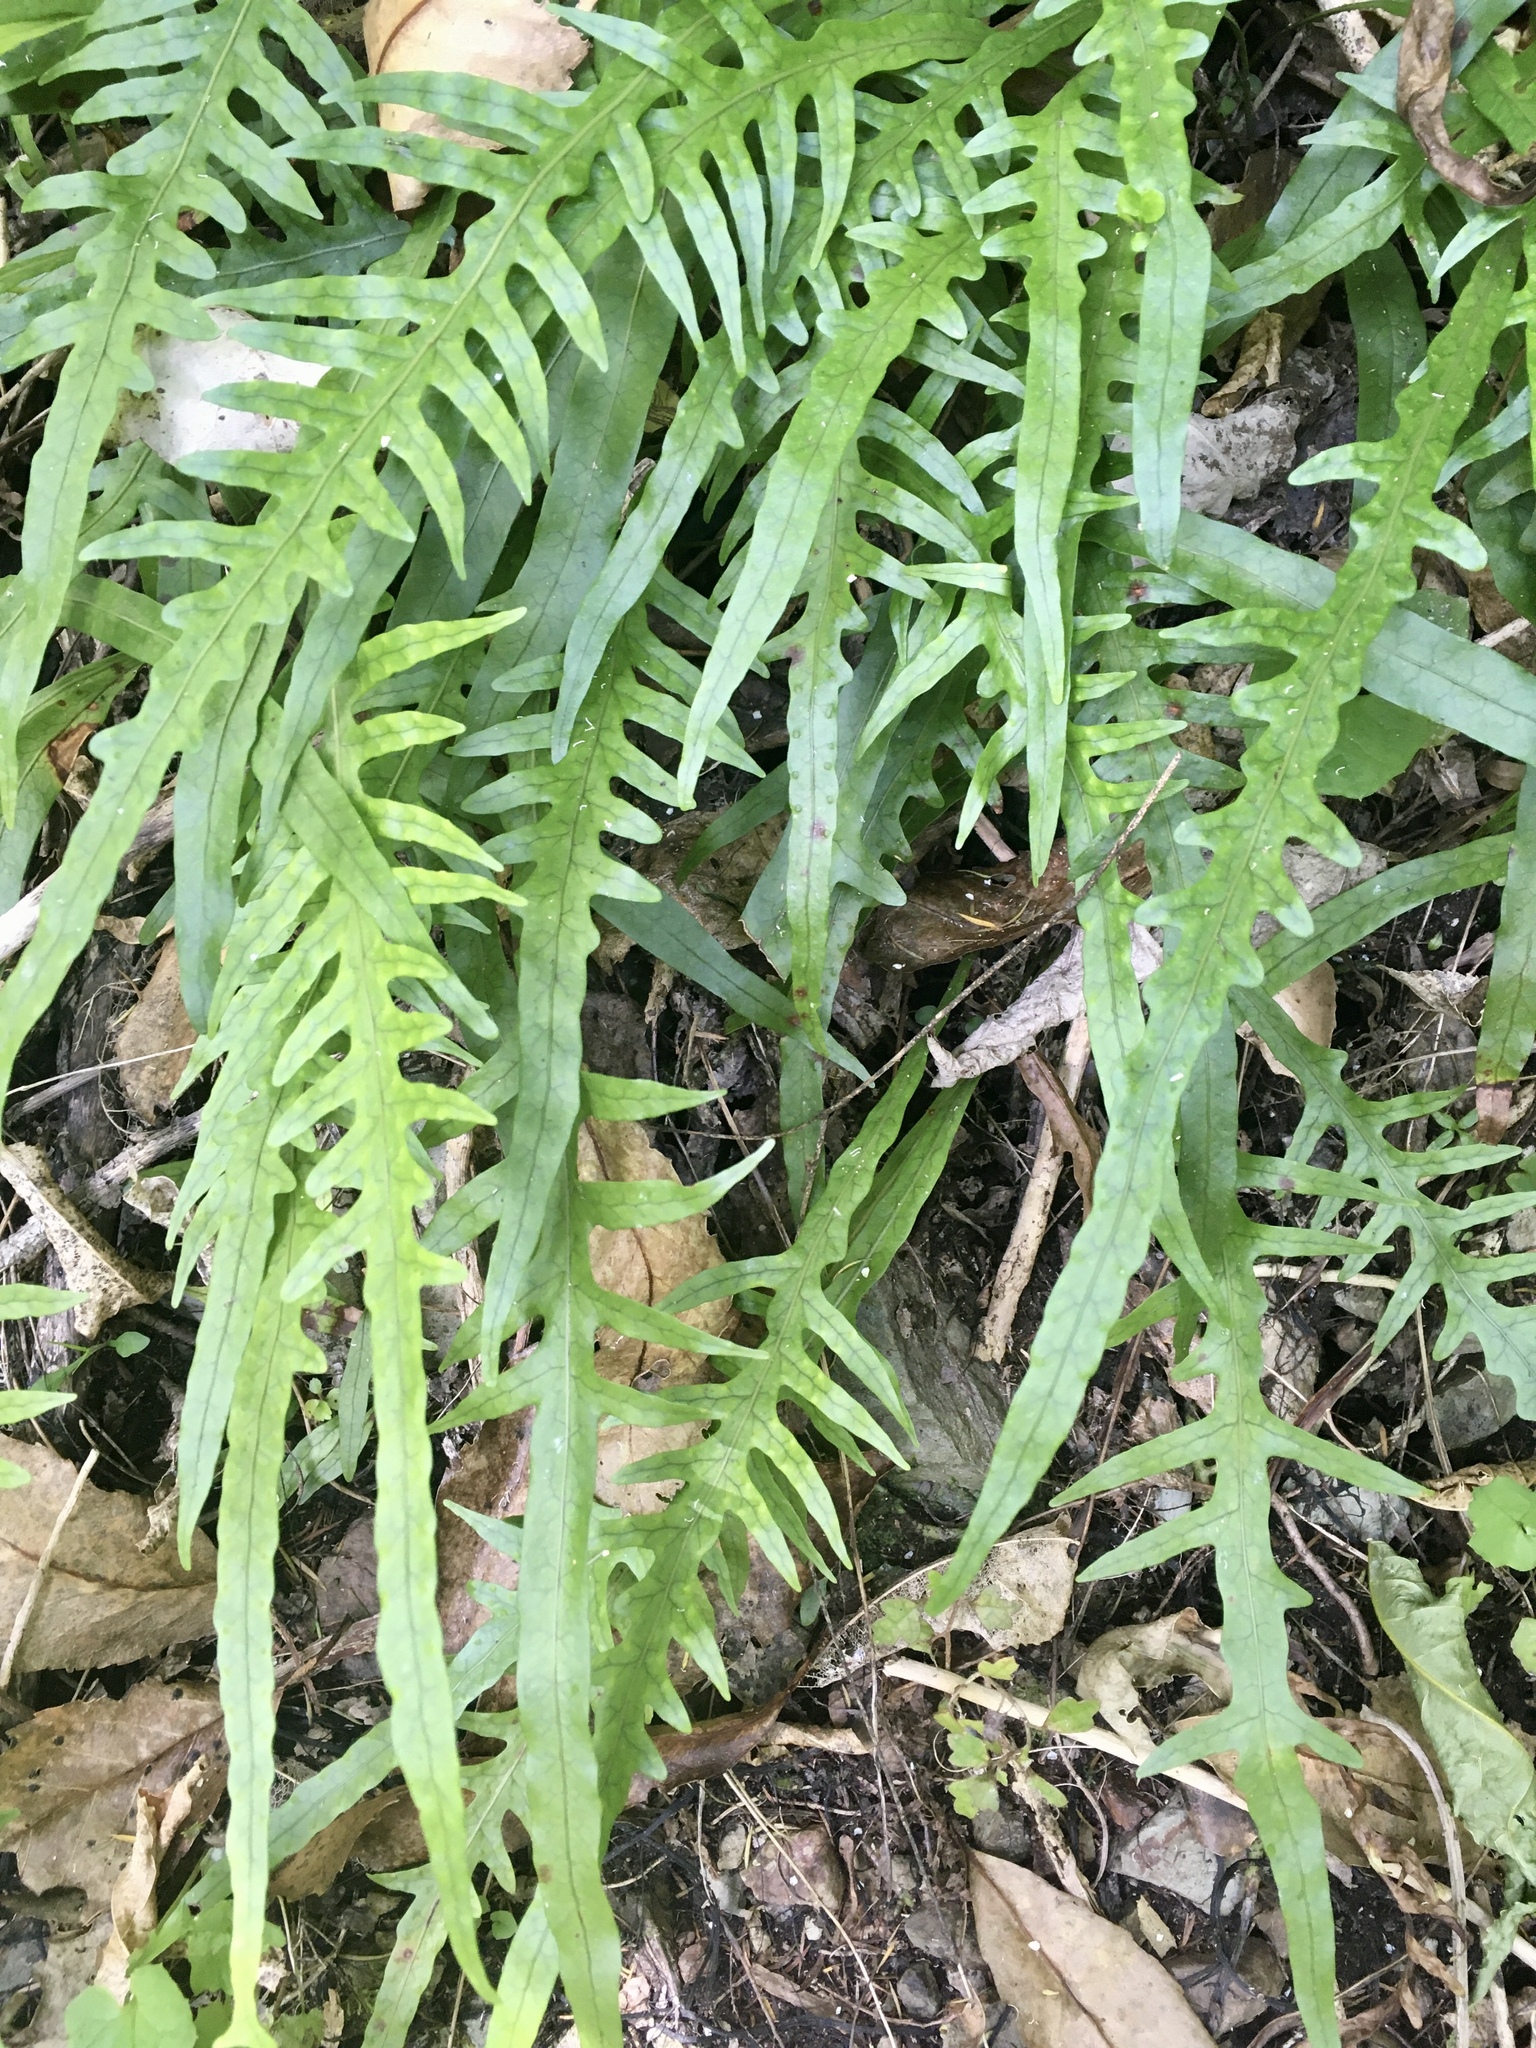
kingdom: Plantae
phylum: Tracheophyta
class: Polypodiopsida
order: Polypodiales
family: Polypodiaceae
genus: Lecanopteris
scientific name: Lecanopteris scandens
